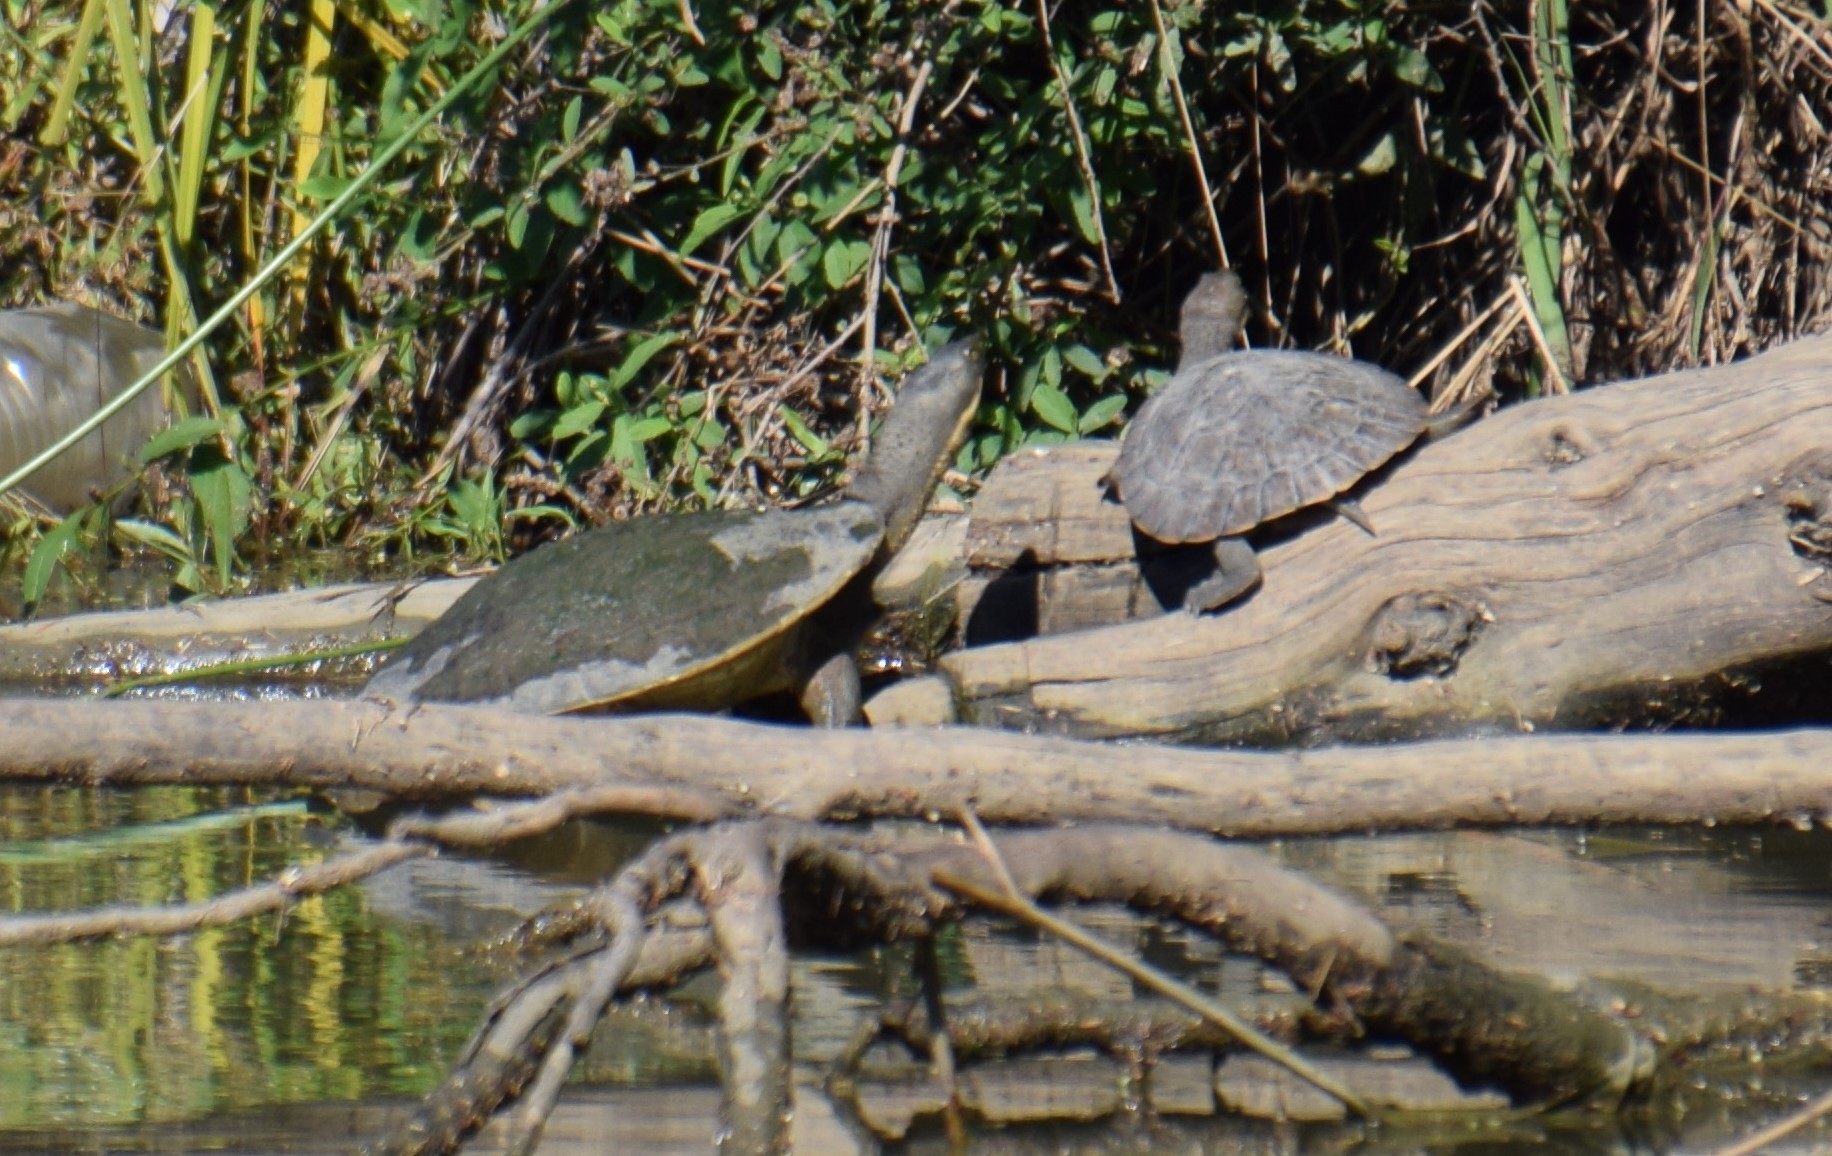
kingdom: Animalia
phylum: Chordata
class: Testudines
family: Chelidae
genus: Emydura
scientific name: Emydura macquarii
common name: Murray river turtle
